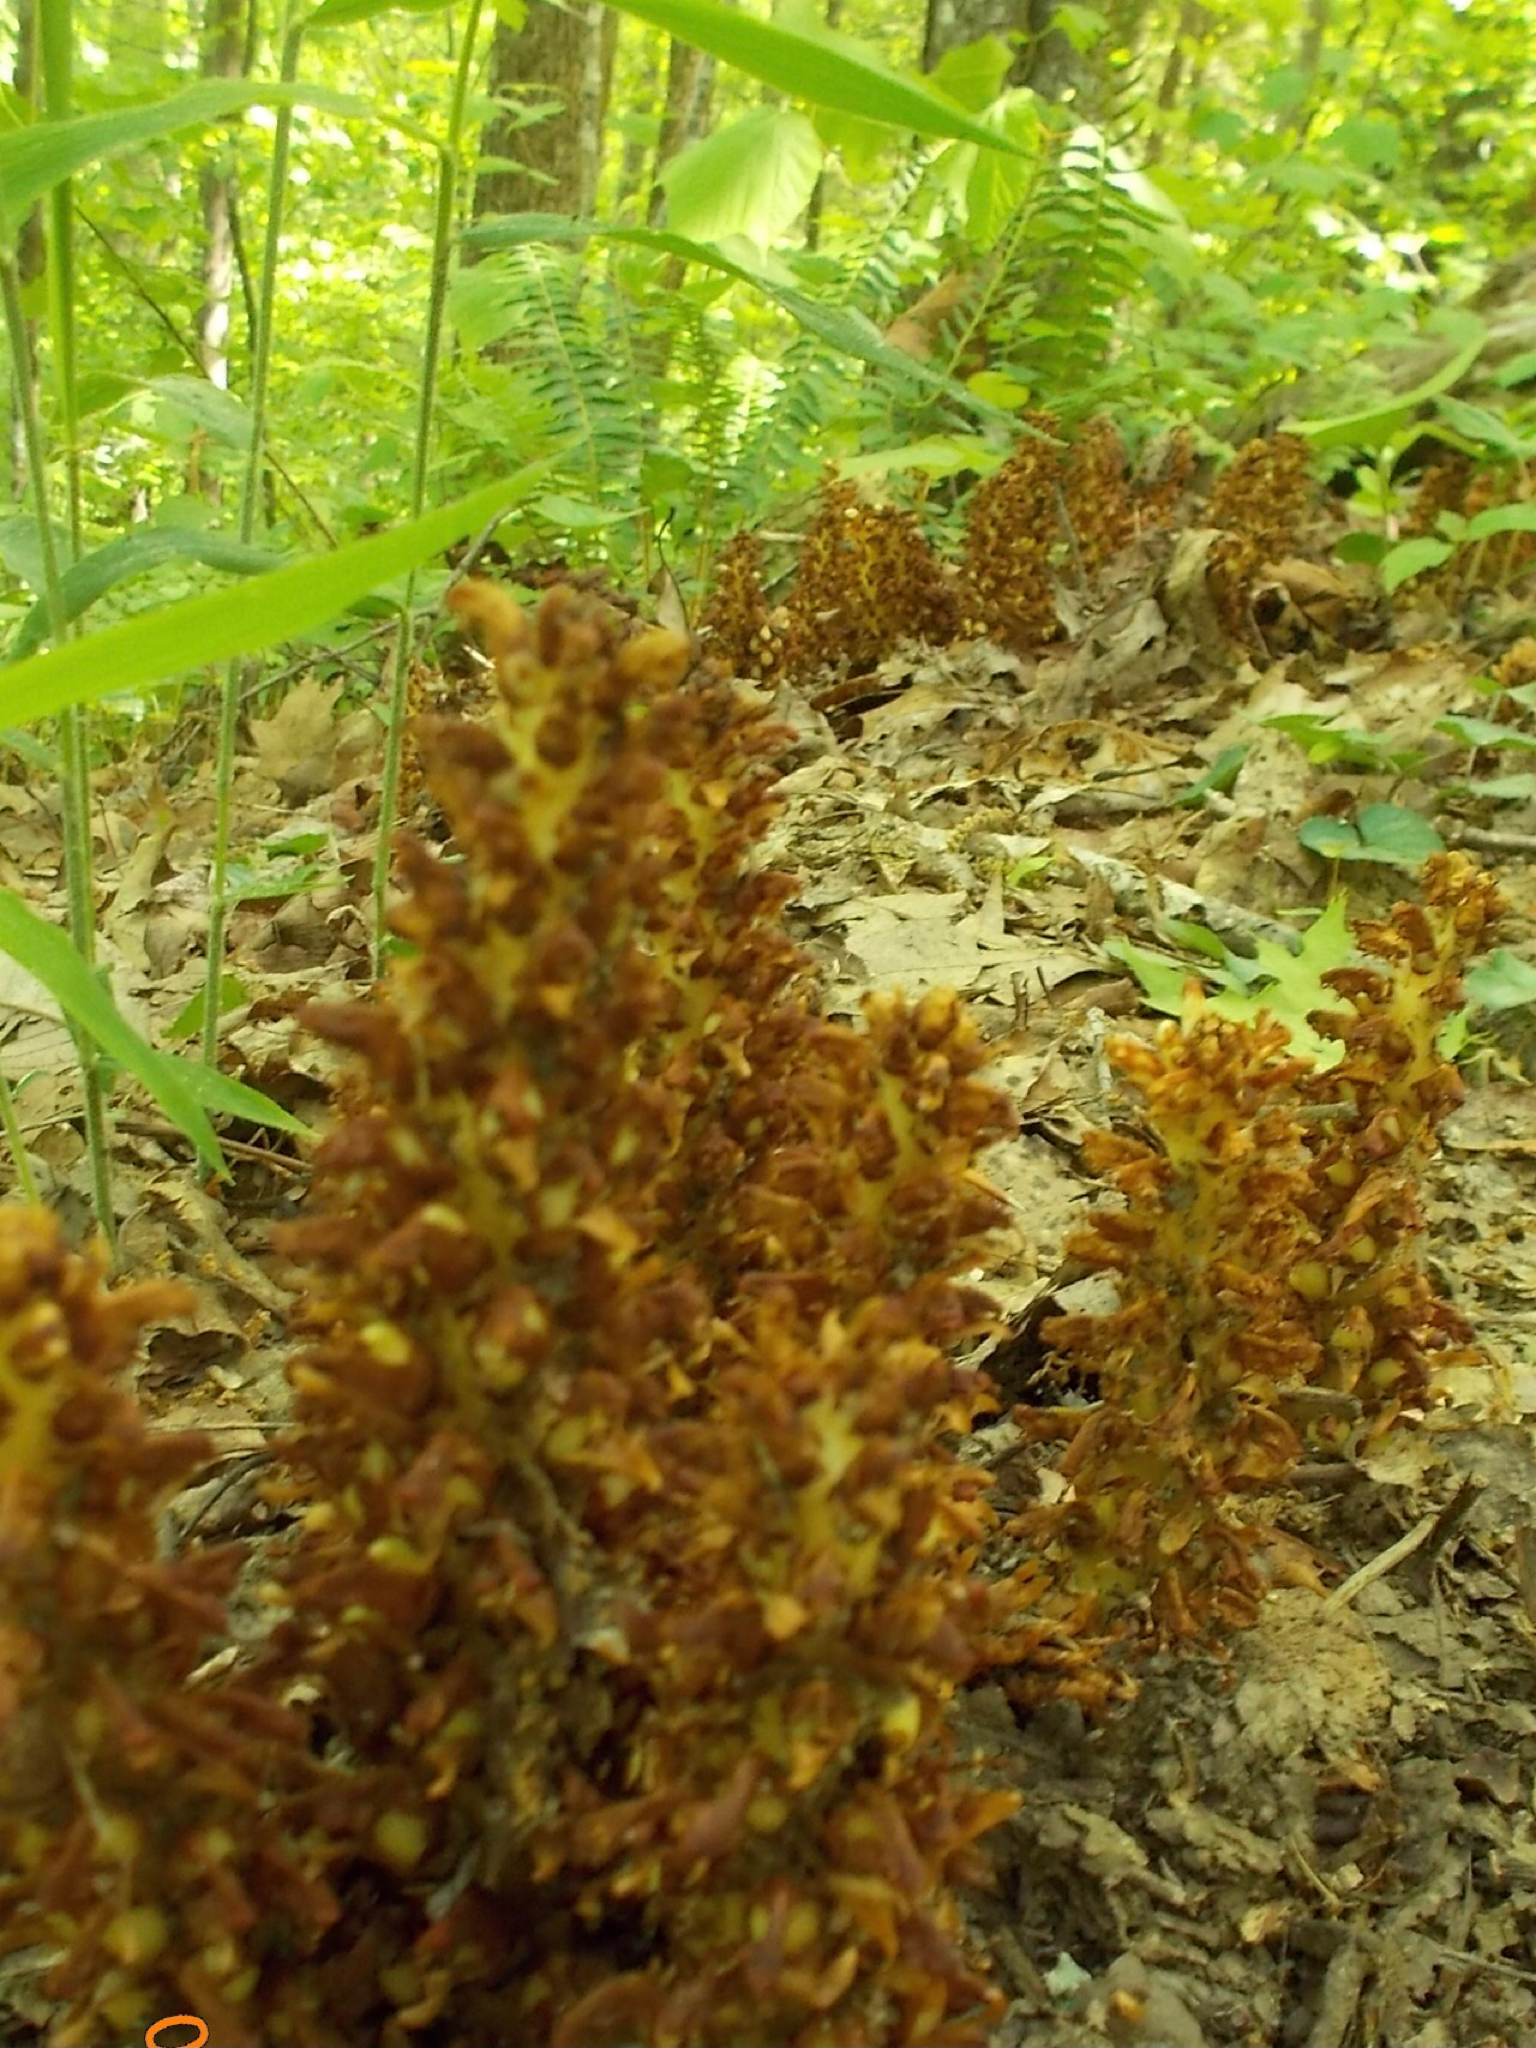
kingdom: Plantae
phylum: Tracheophyta
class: Magnoliopsida
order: Lamiales
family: Orobanchaceae
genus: Conopholis
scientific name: Conopholis americana
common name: American cancer-root
